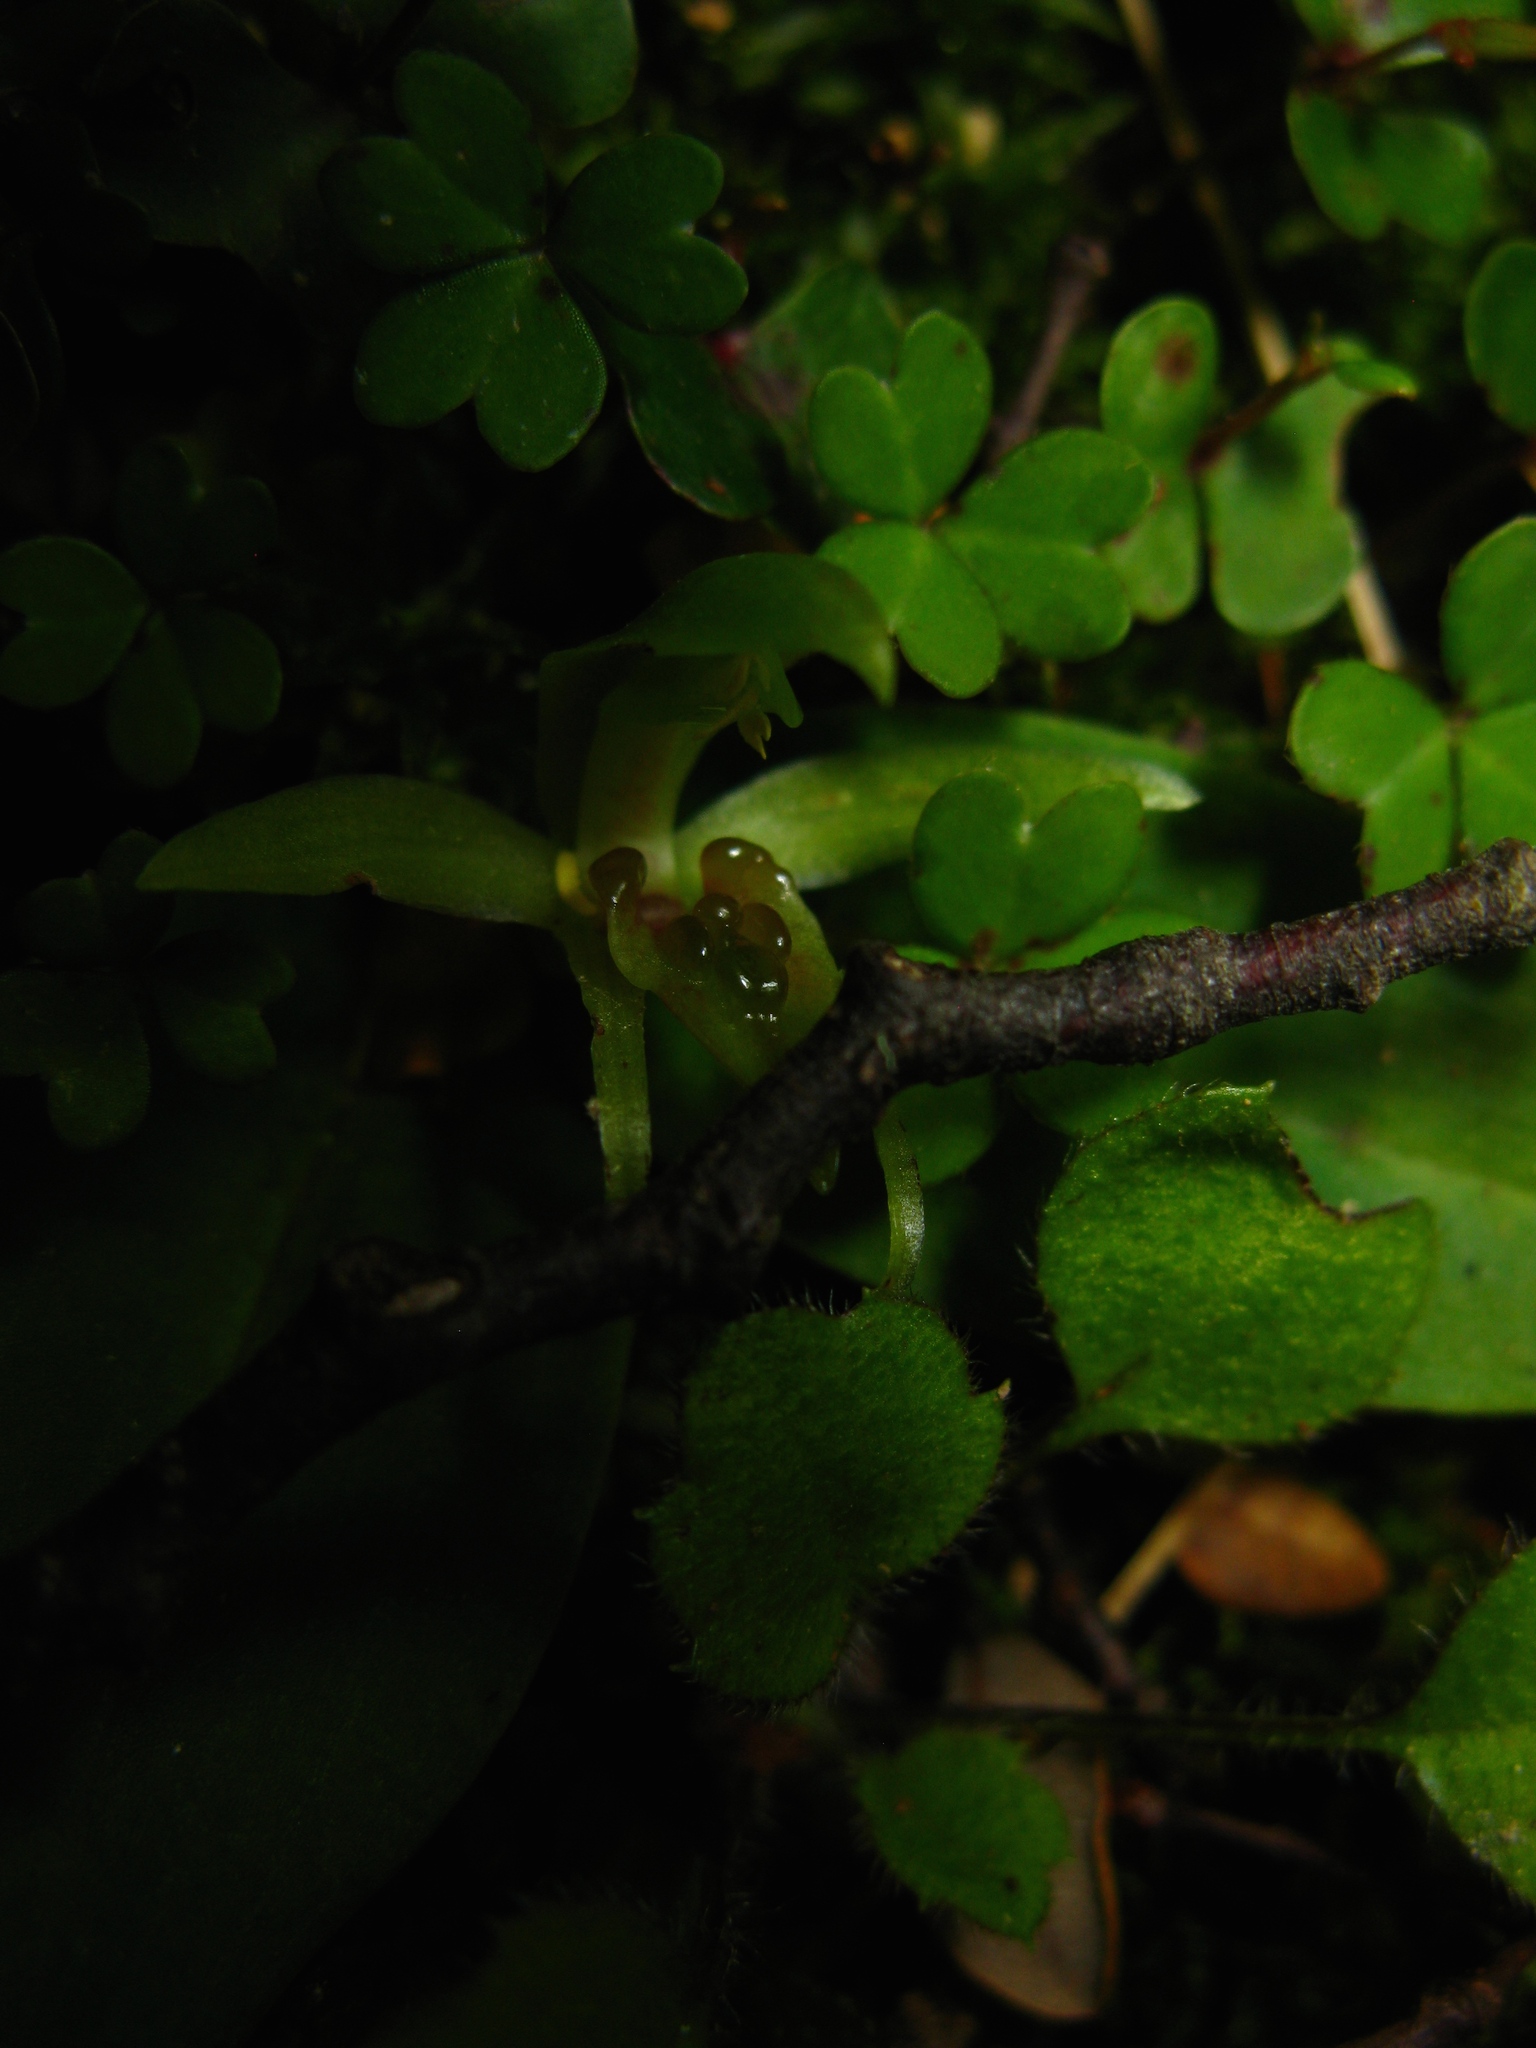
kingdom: Plantae
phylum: Tracheophyta
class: Liliopsida
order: Asparagales
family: Orchidaceae
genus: Chiloglottis
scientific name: Chiloglottis cornuta
